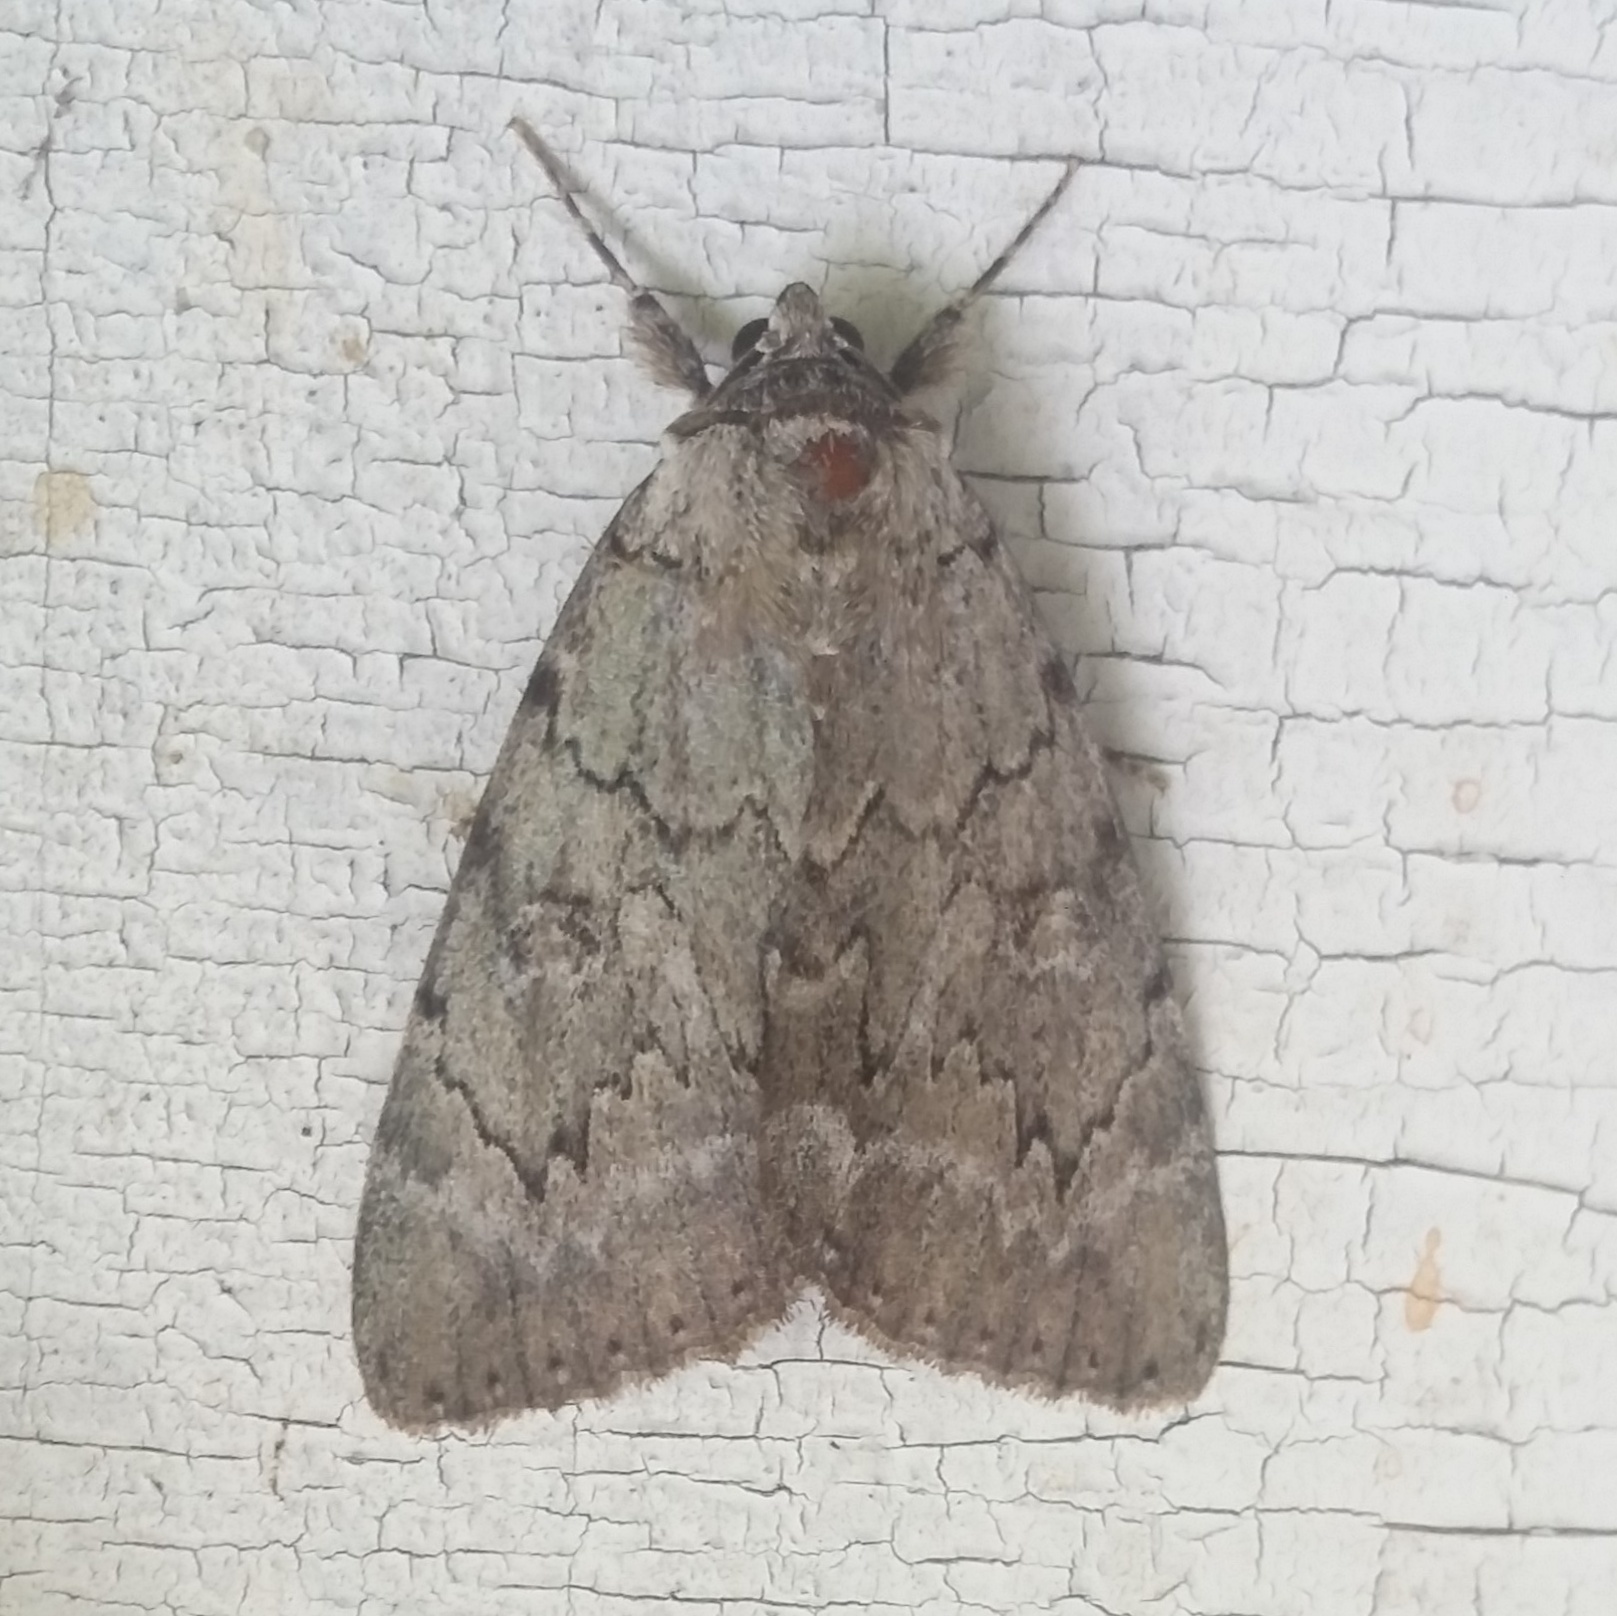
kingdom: Animalia
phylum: Arthropoda
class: Insecta
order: Lepidoptera
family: Erebidae
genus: Catocala
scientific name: Catocala obscura
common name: Obscure underwing moth
